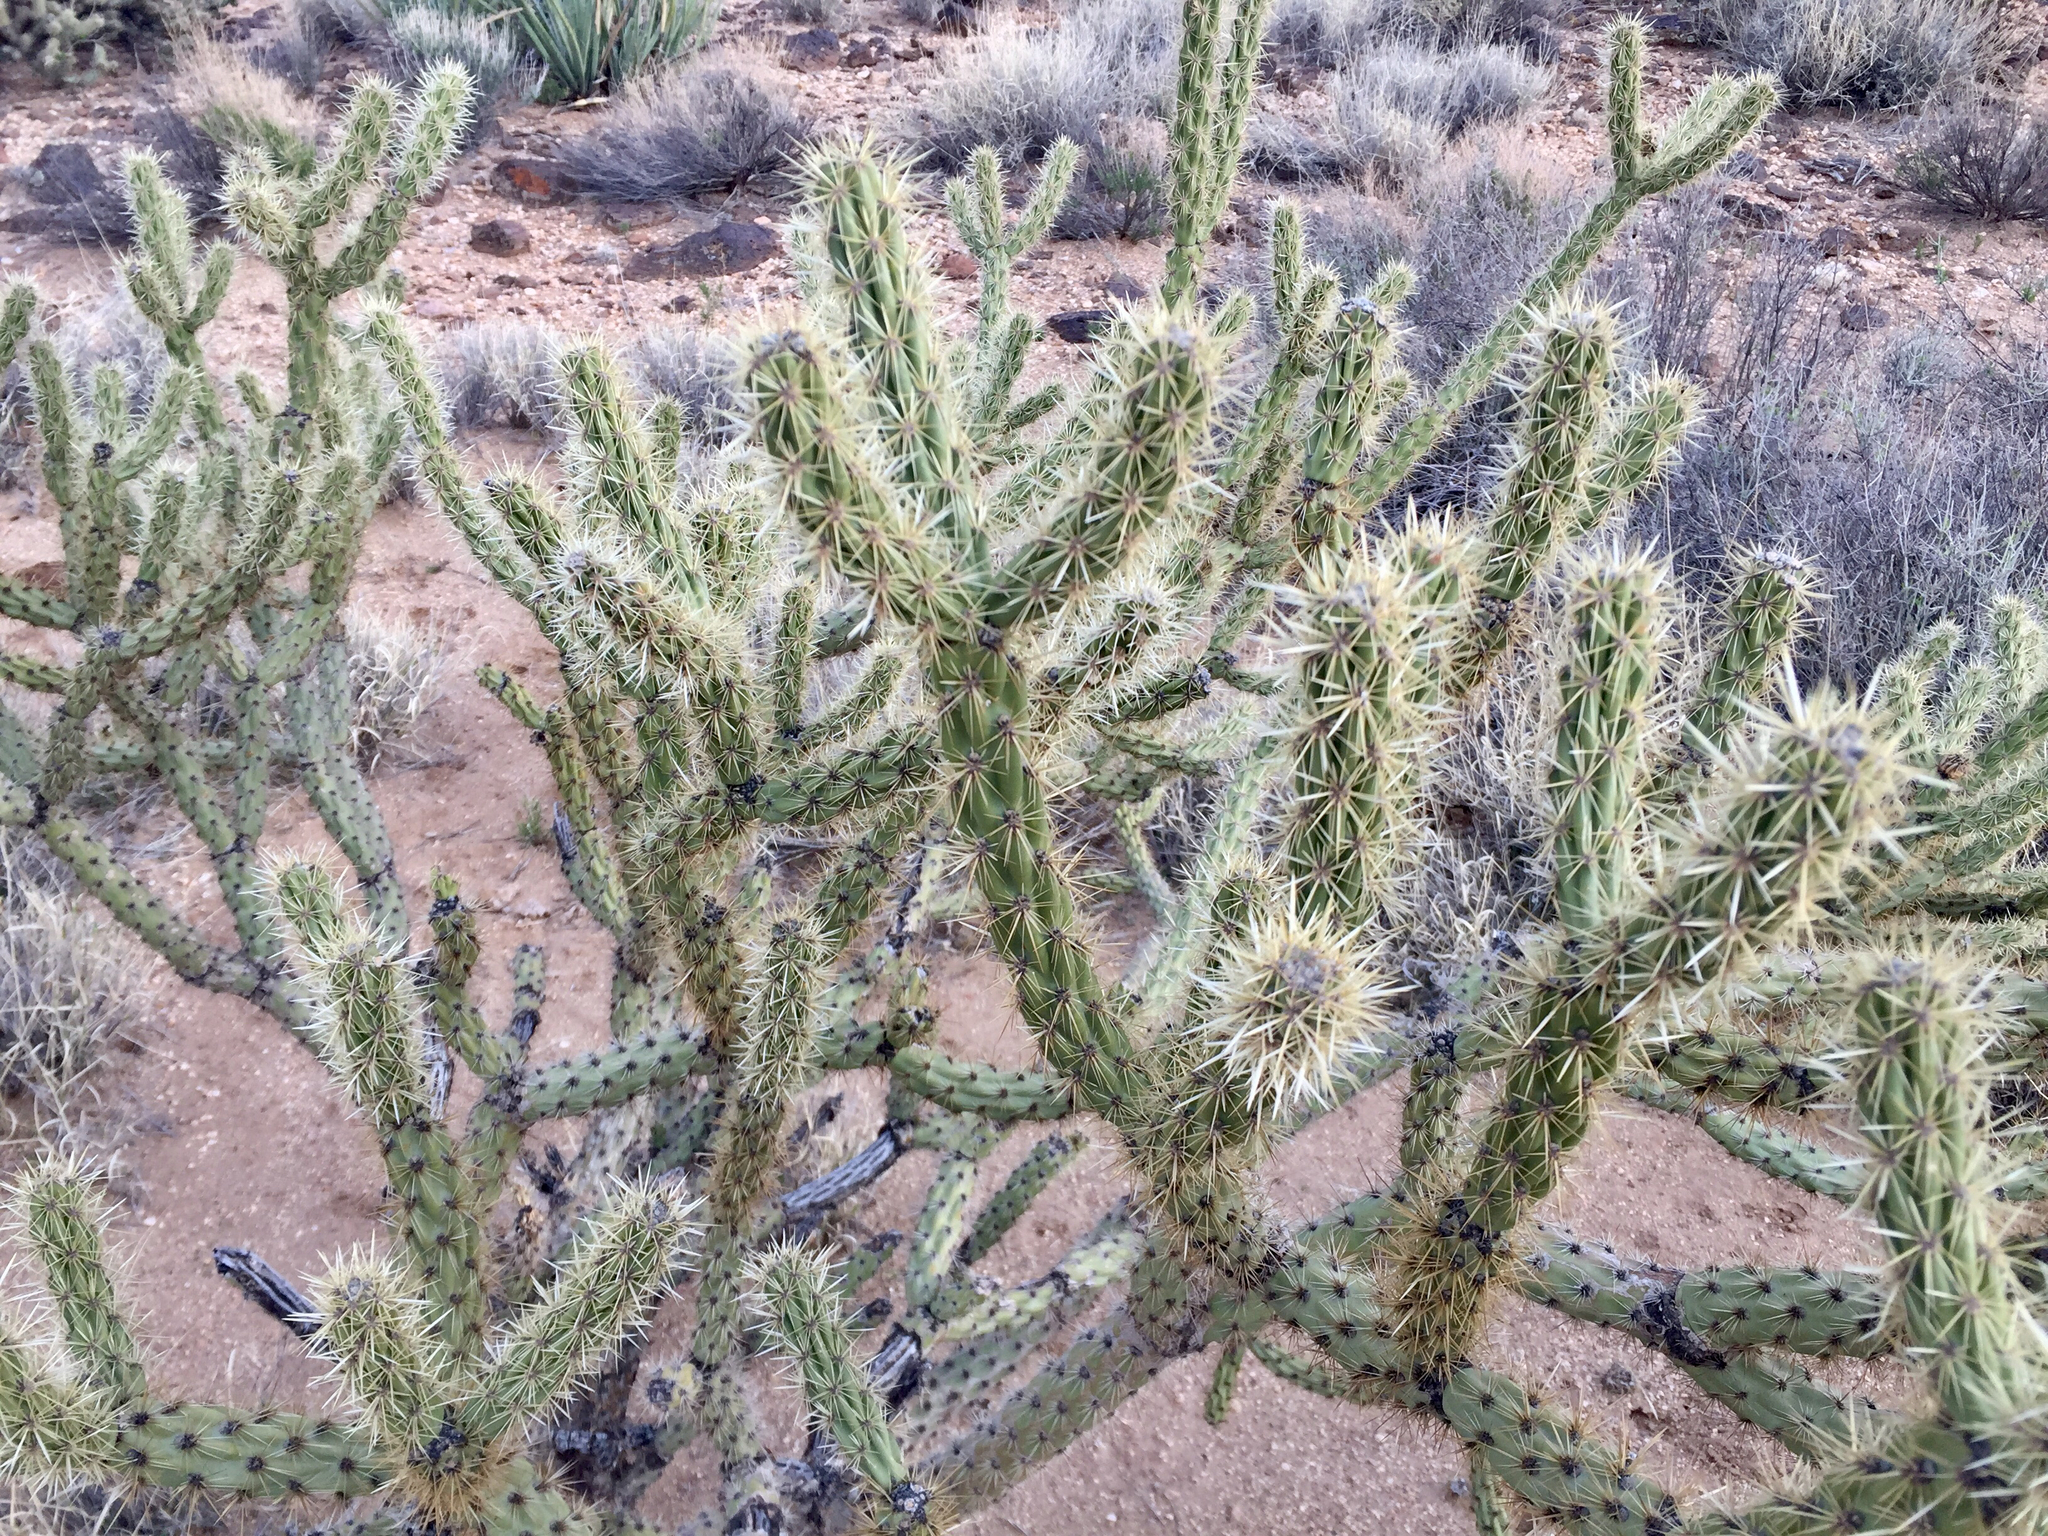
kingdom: Plantae
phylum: Tracheophyta
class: Magnoliopsida
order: Caryophyllales
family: Cactaceae
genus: Cylindropuntia
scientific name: Cylindropuntia acanthocarpa
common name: Buckhorn cholla
